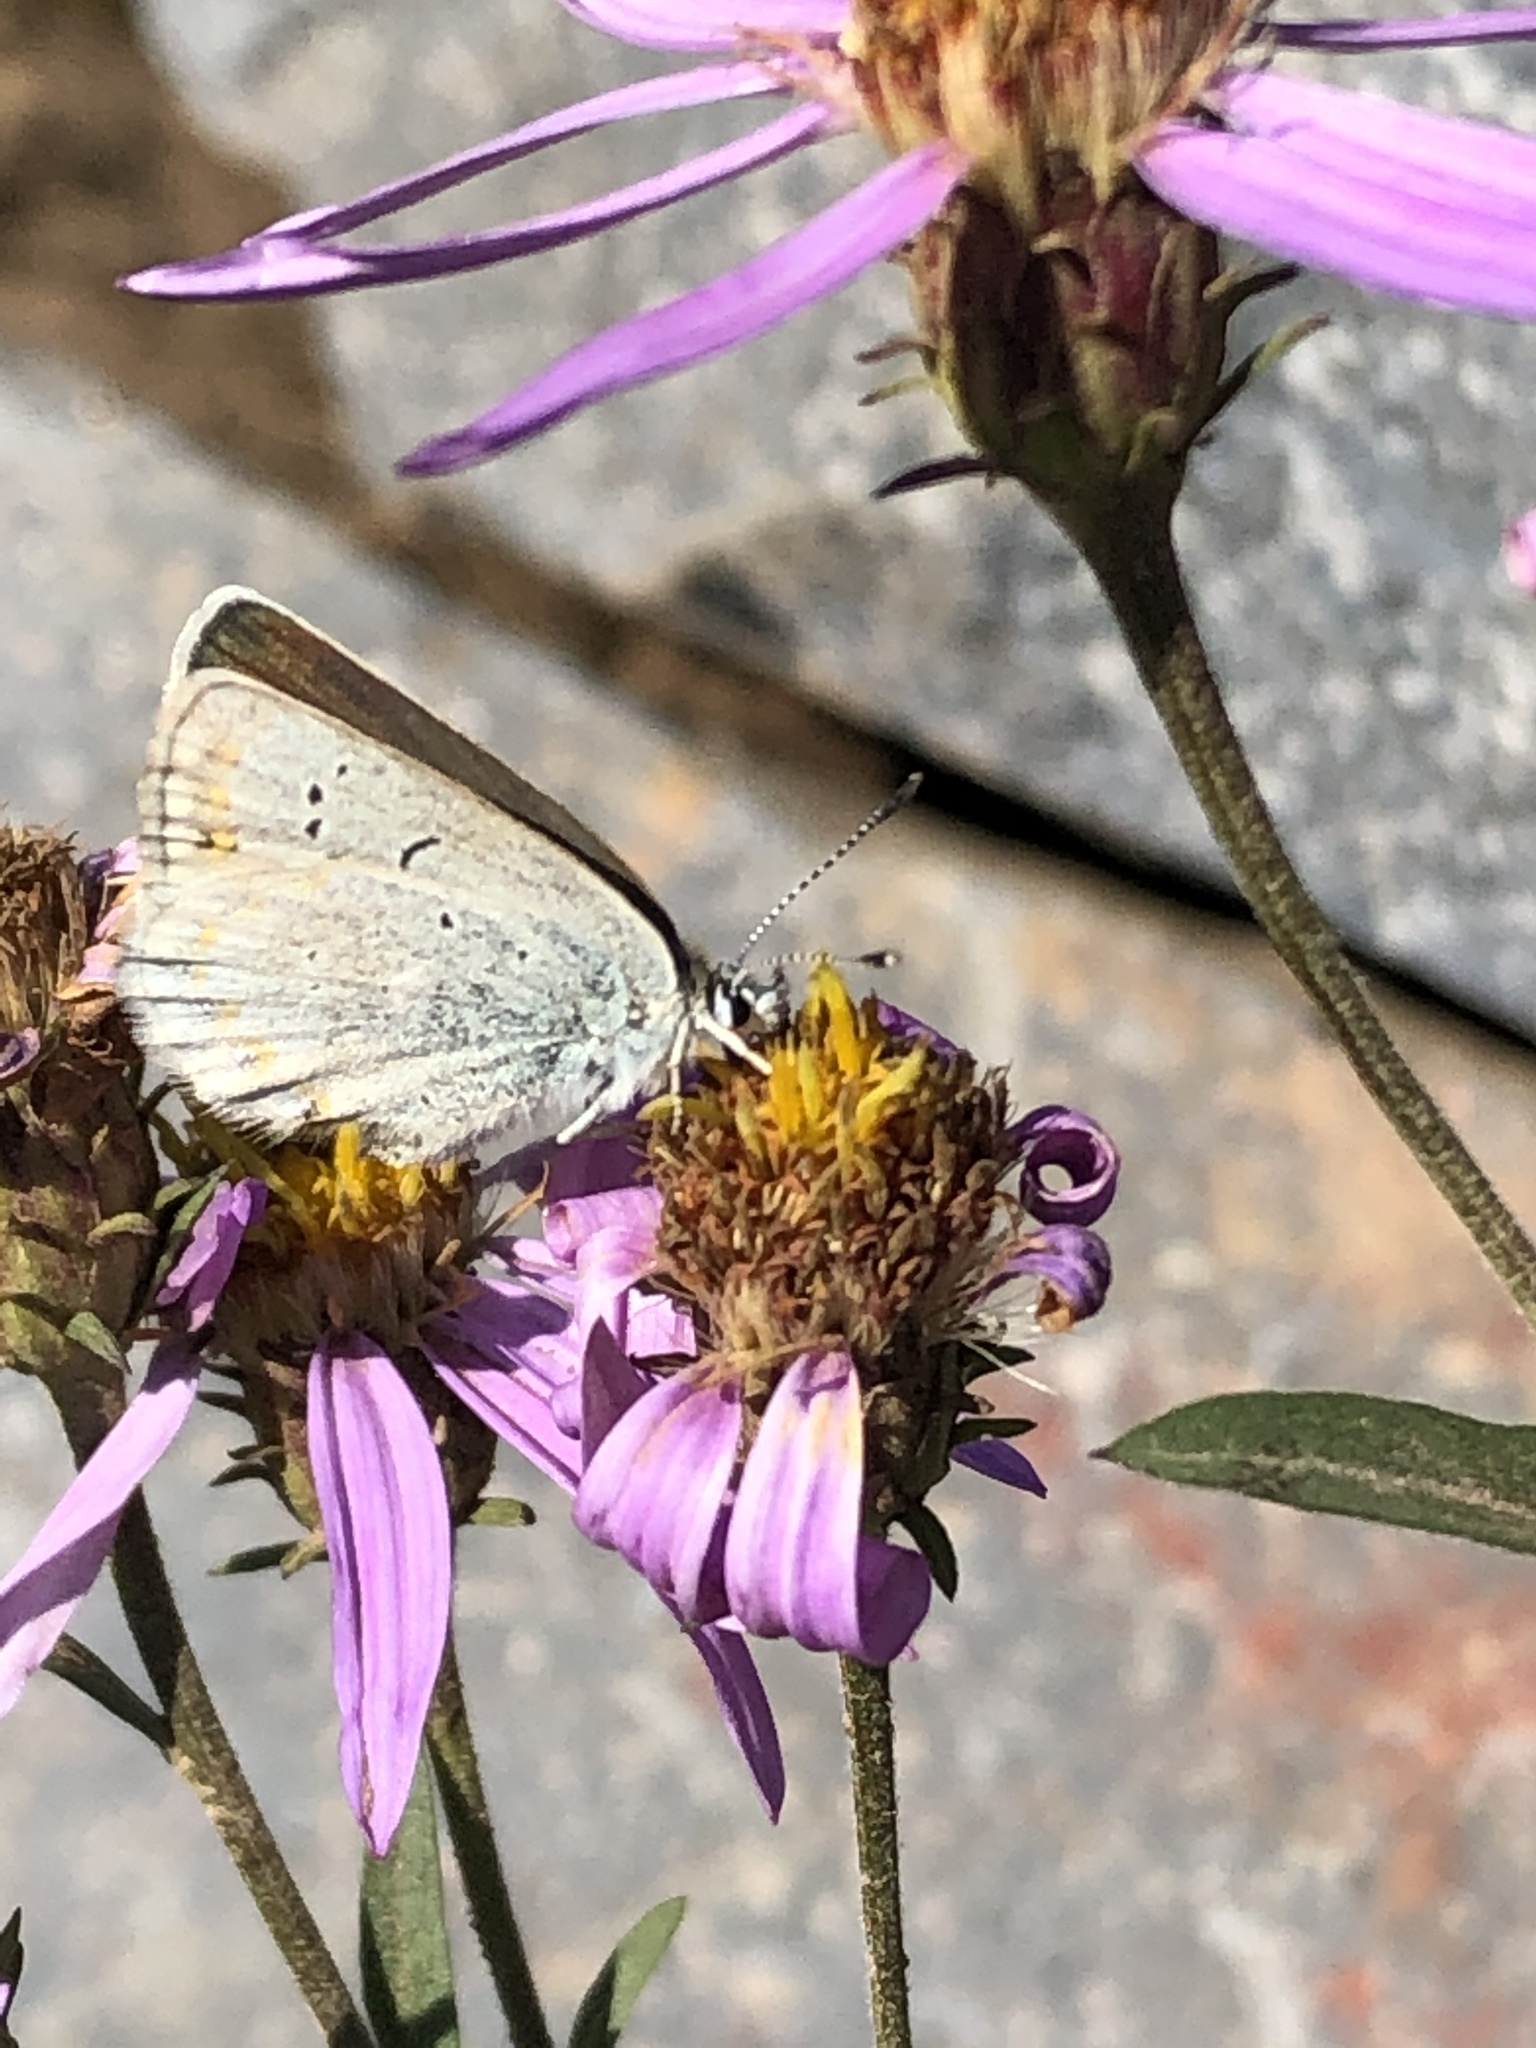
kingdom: Animalia
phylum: Arthropoda
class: Insecta
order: Lepidoptera
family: Lycaenidae
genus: Lycaeides
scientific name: Lycaeides anna
